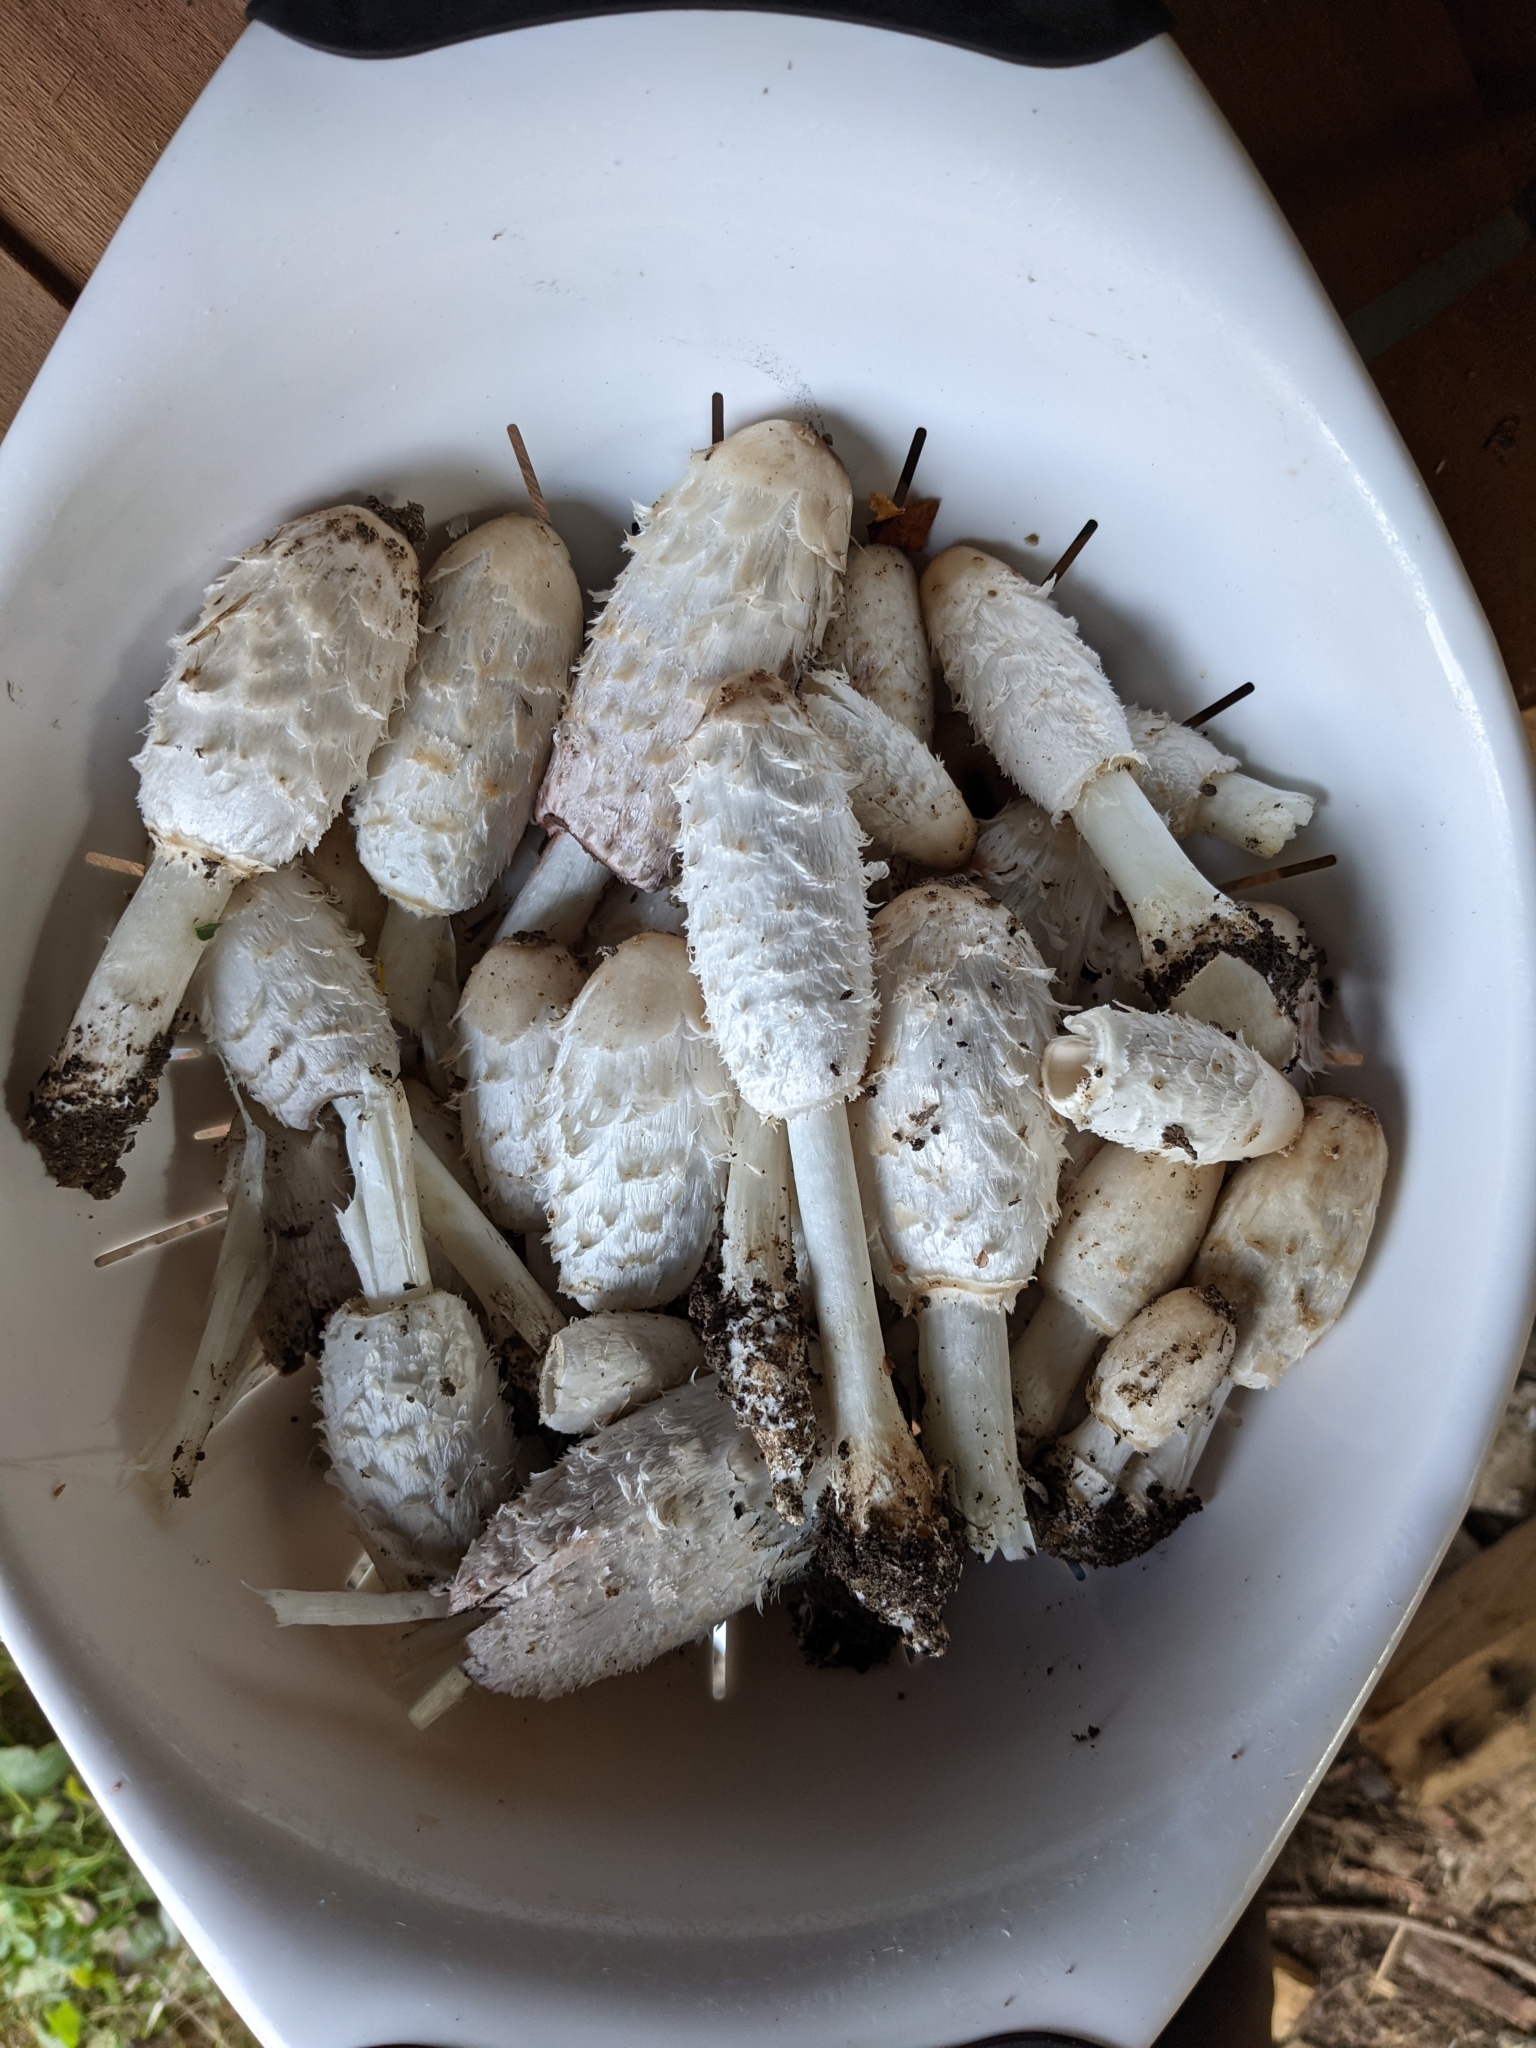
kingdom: Fungi
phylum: Basidiomycota
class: Agaricomycetes
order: Agaricales
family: Agaricaceae
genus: Coprinus
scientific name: Coprinus comatus
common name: Lawyer's wig
